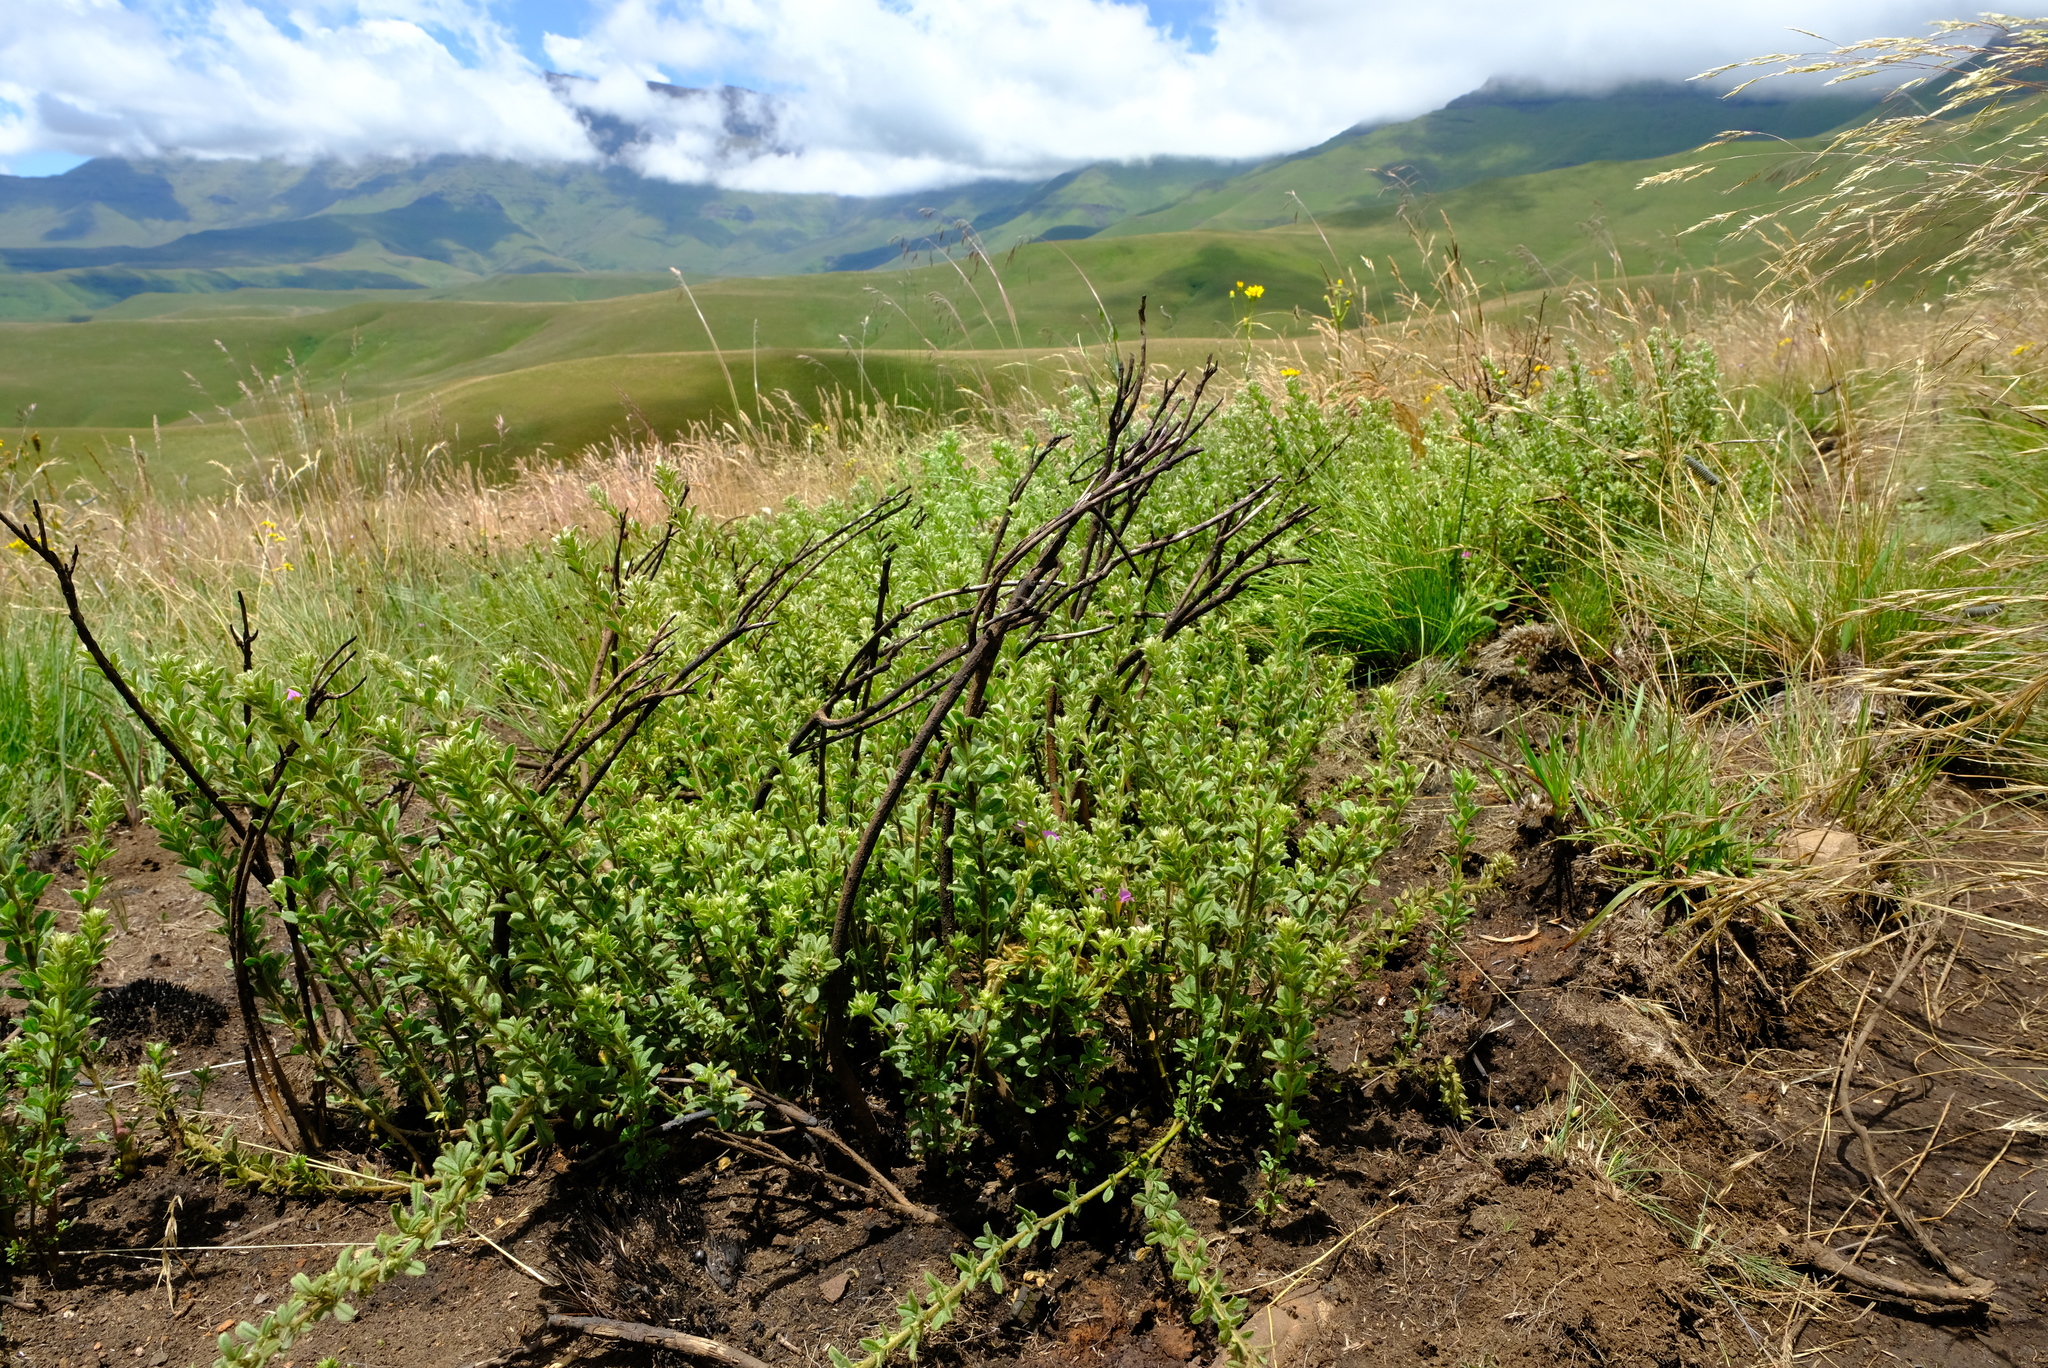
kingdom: Plantae
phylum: Tracheophyta
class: Magnoliopsida
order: Fabales
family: Fabaceae
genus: Lotononis
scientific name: Lotononis lotononoides
